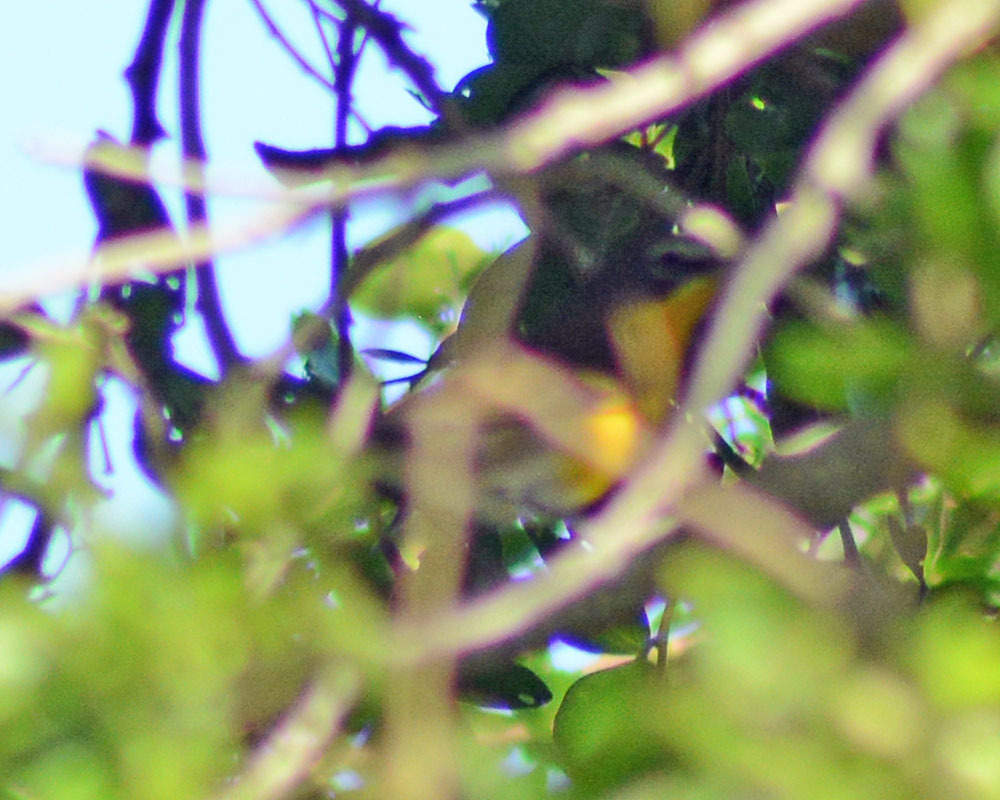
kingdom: Animalia
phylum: Chordata
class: Aves
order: Passeriformes
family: Parulidae
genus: Icteria
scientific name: Icteria virens
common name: Yellow-breasted chat
